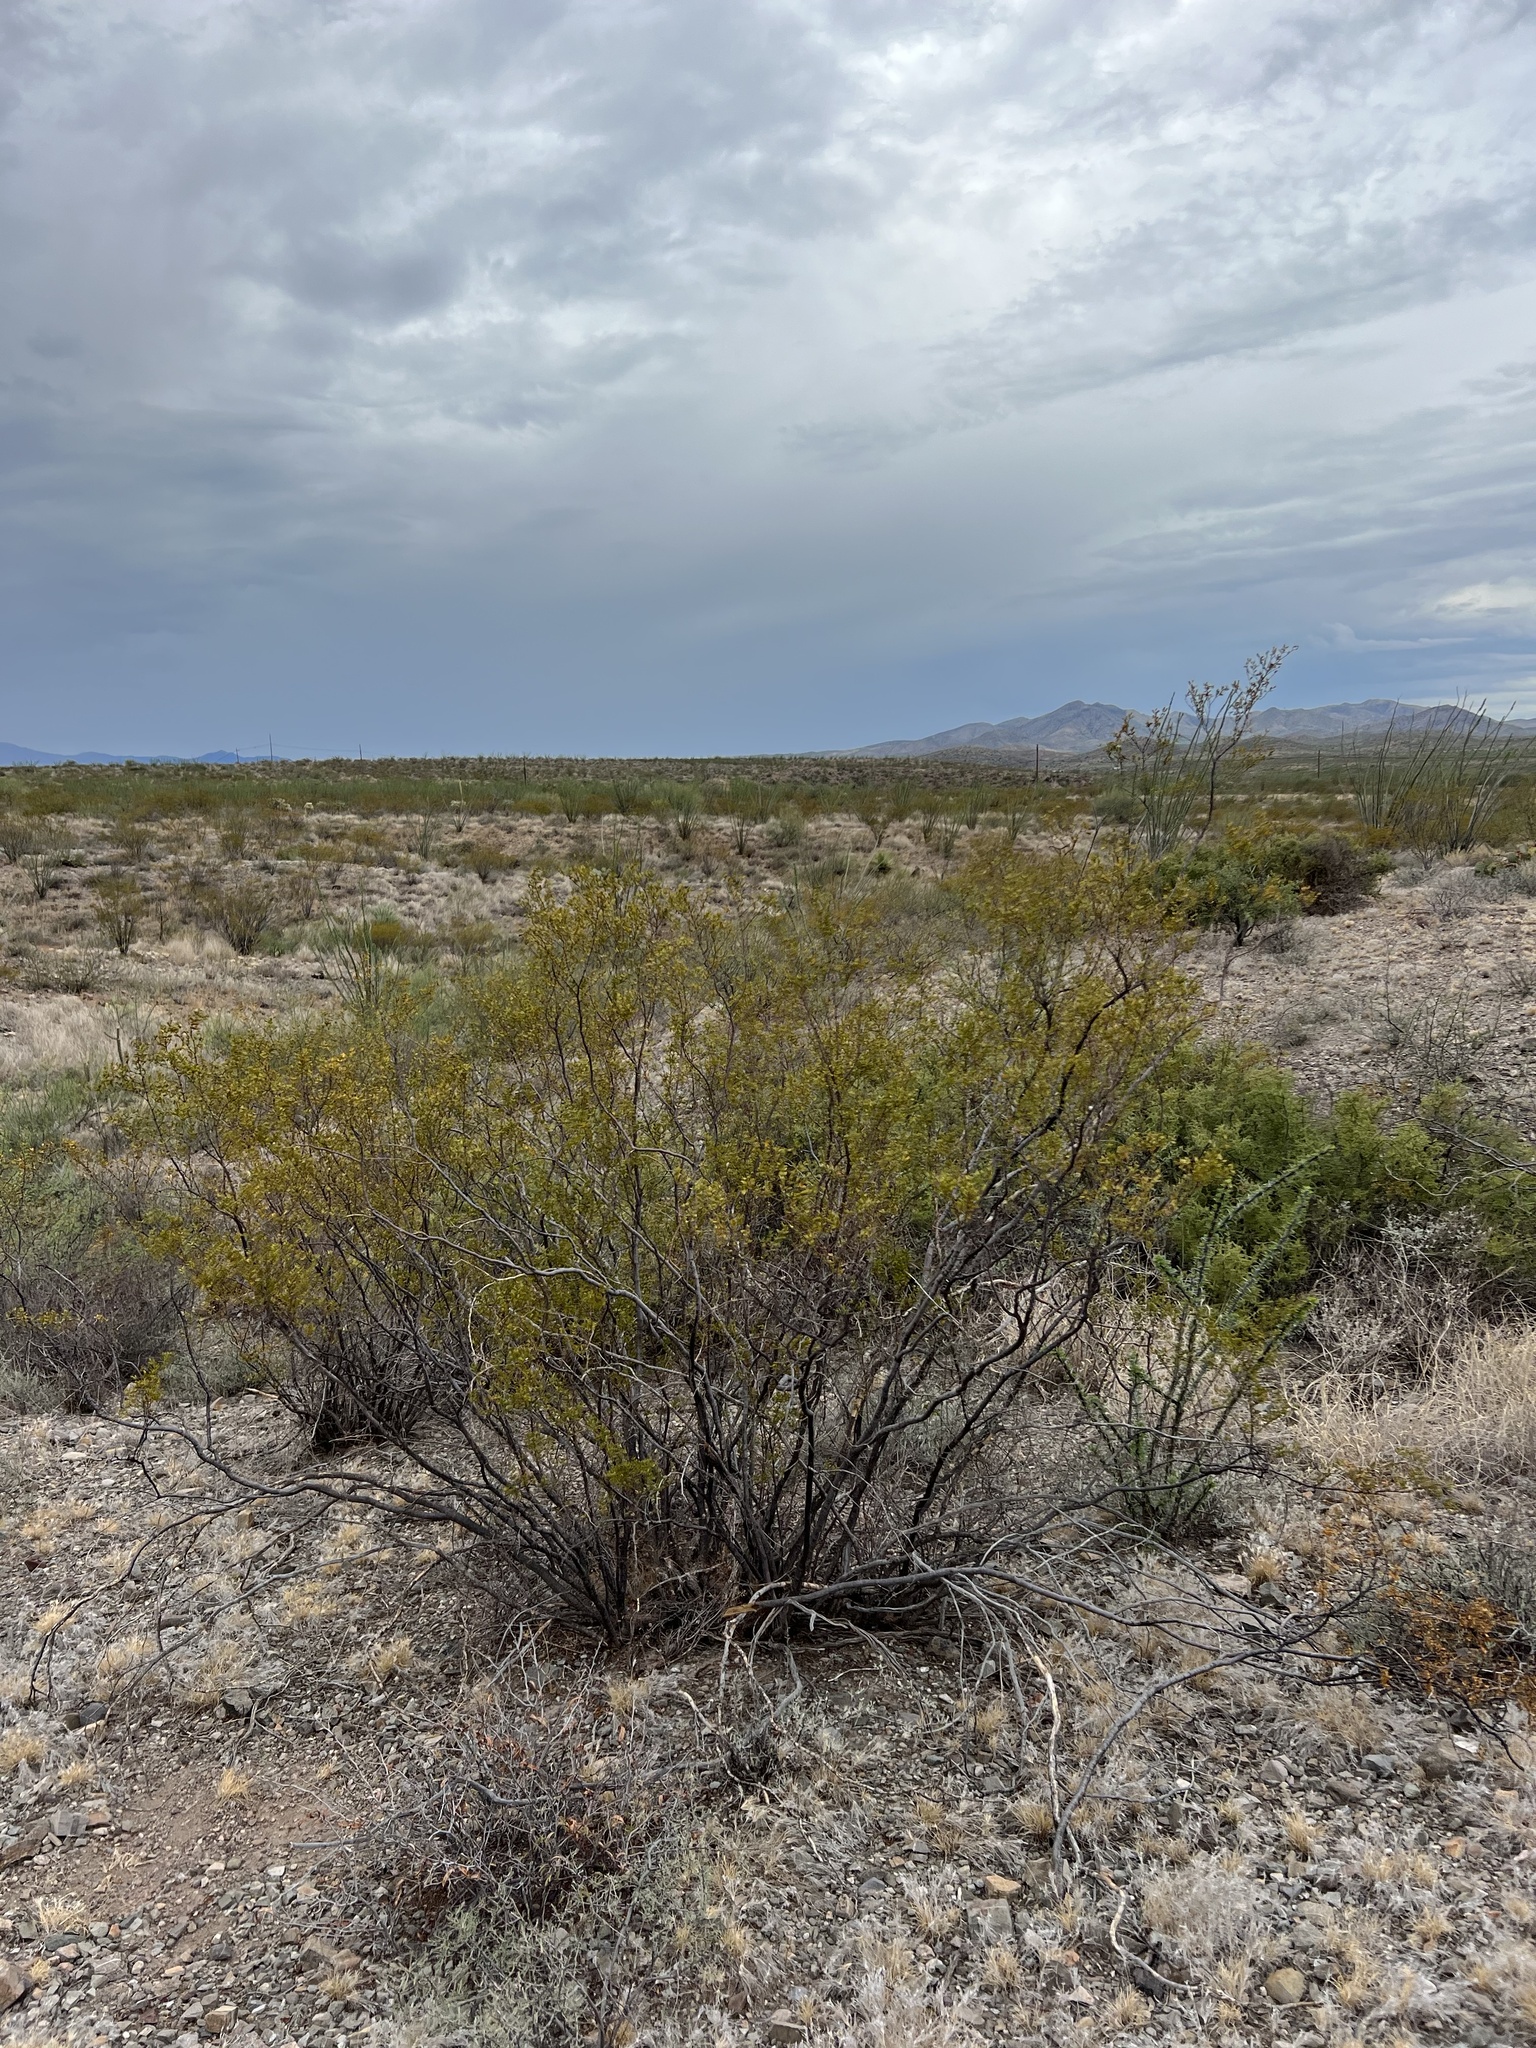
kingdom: Plantae
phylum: Tracheophyta
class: Magnoliopsida
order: Zygophyllales
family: Zygophyllaceae
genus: Larrea
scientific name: Larrea tridentata
